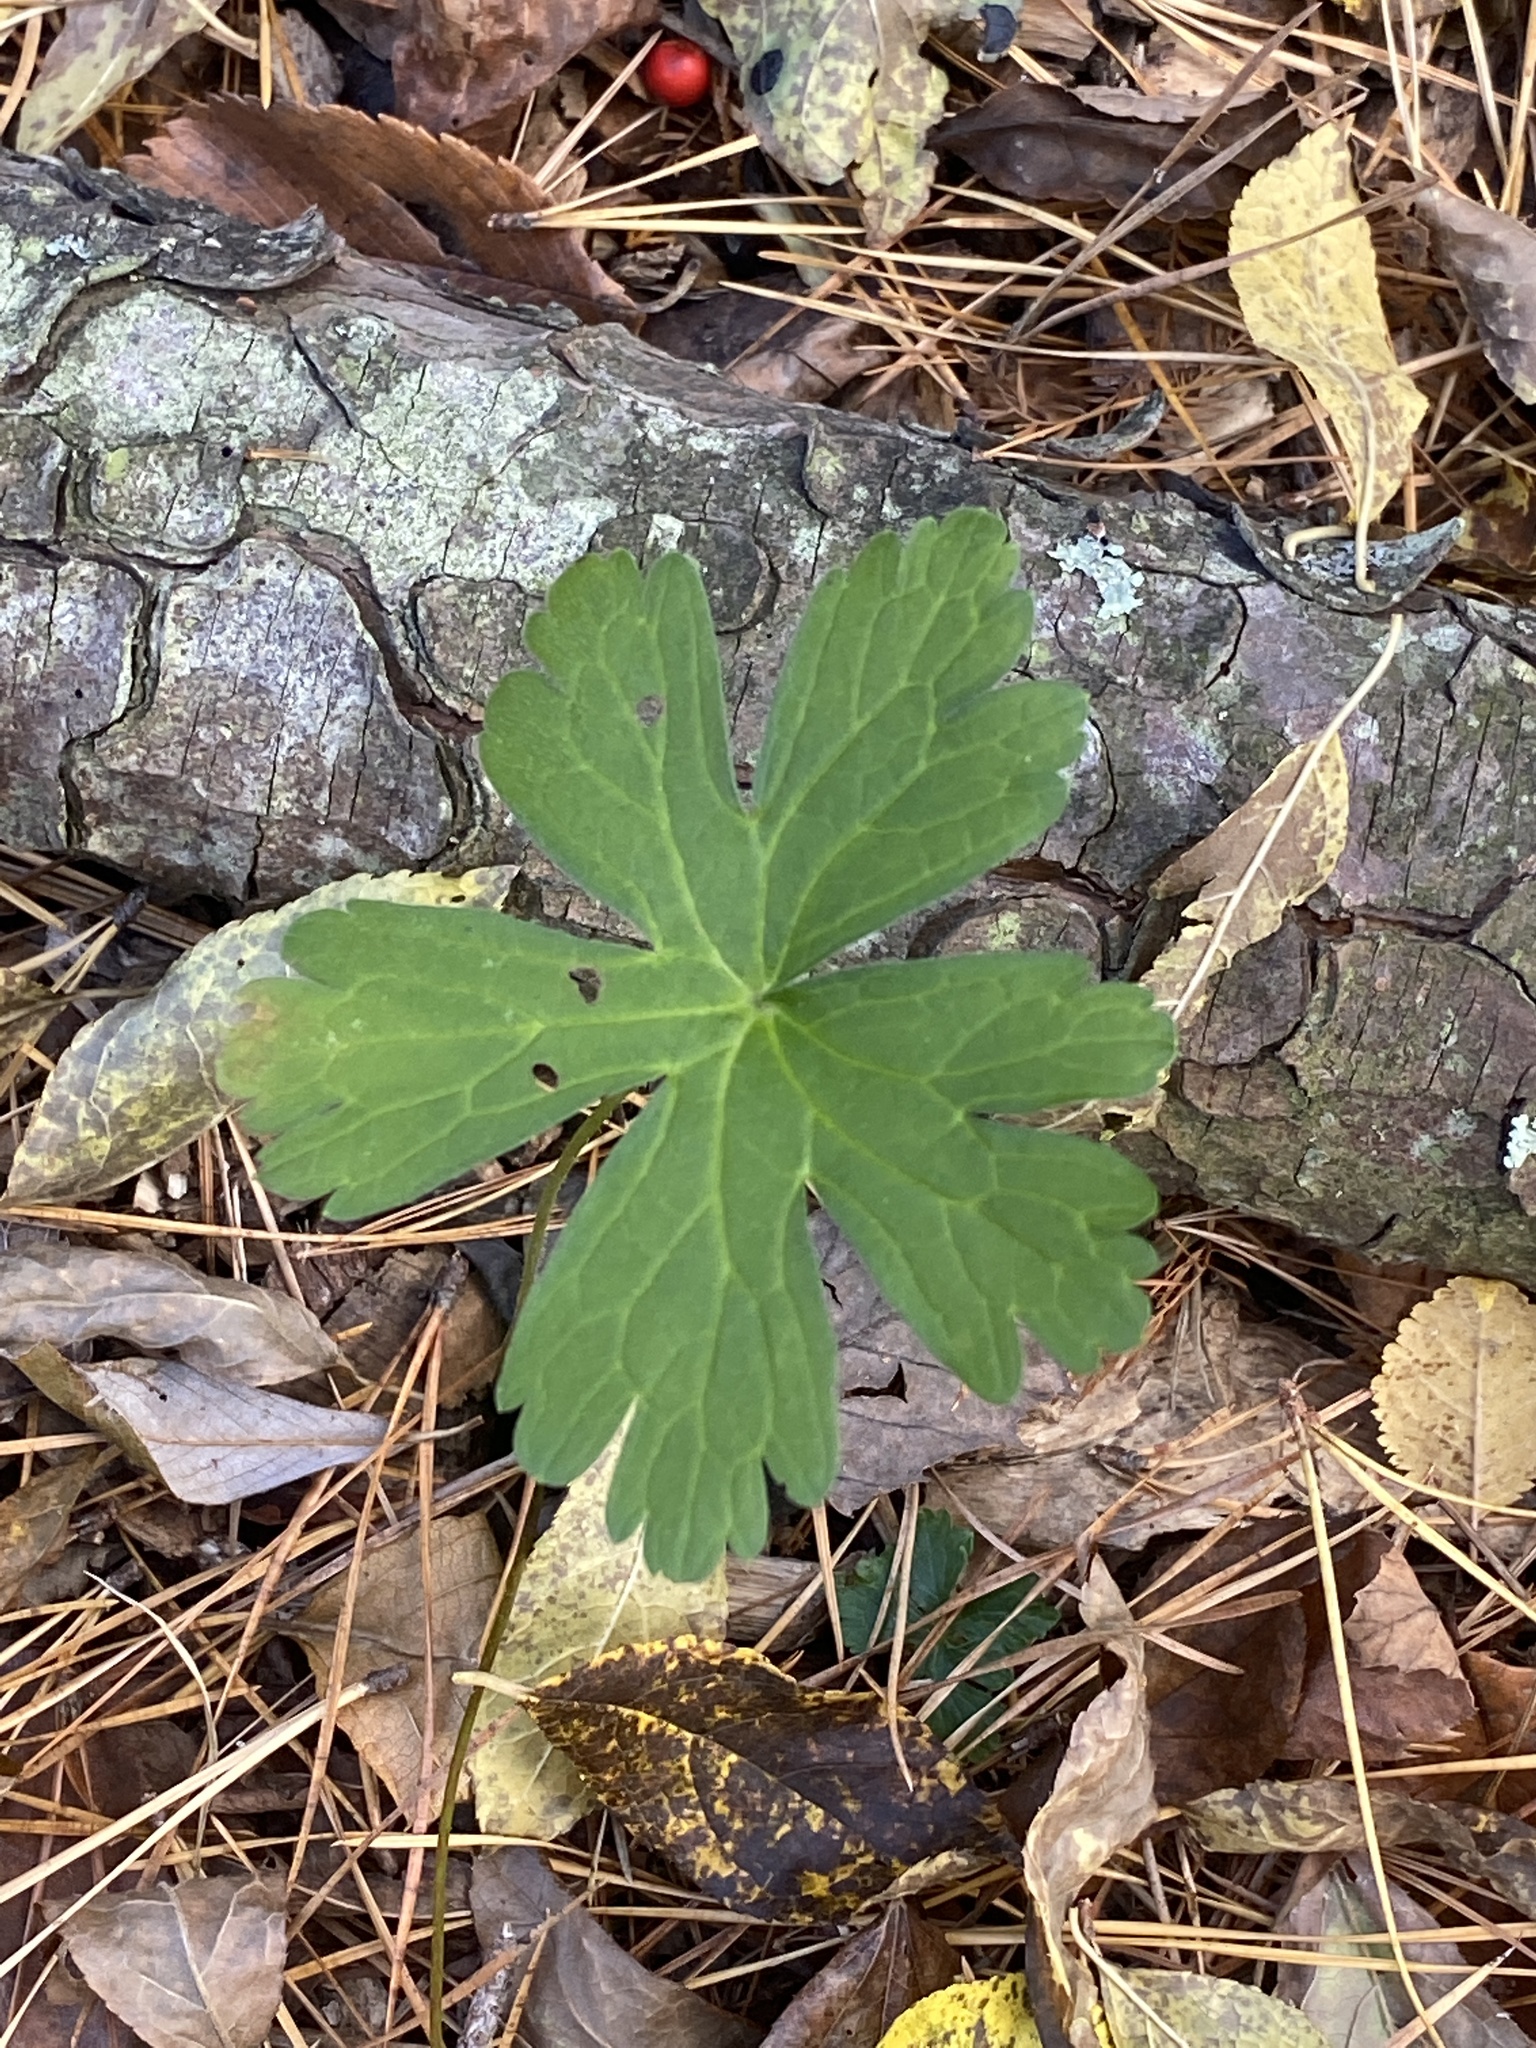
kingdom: Plantae
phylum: Tracheophyta
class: Magnoliopsida
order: Geraniales
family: Geraniaceae
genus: Geranium
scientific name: Geranium maculatum
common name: Spotted geranium
